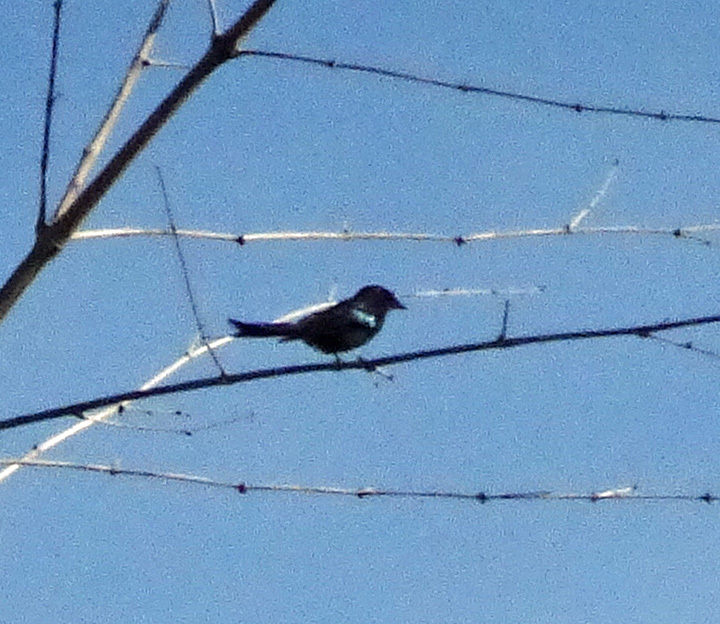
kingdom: Animalia
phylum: Chordata
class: Aves
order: Passeriformes
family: Dicruridae
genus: Dicrurus
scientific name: Dicrurus macrocercus
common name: Black drongo
